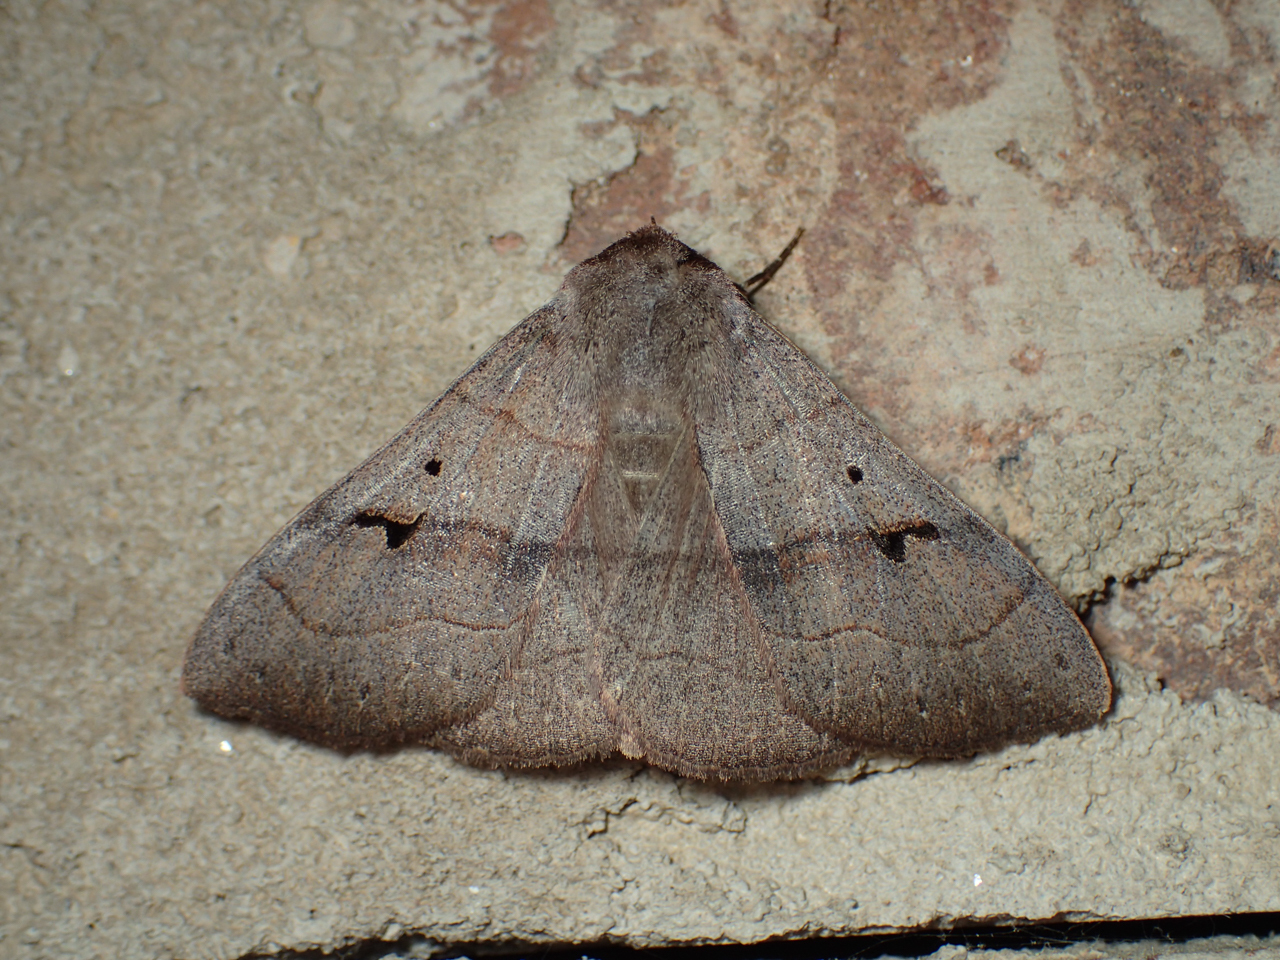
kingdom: Animalia
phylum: Arthropoda
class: Insecta
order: Lepidoptera
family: Erebidae
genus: Panopoda
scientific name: Panopoda carneicosta
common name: Brown panopoda moth
